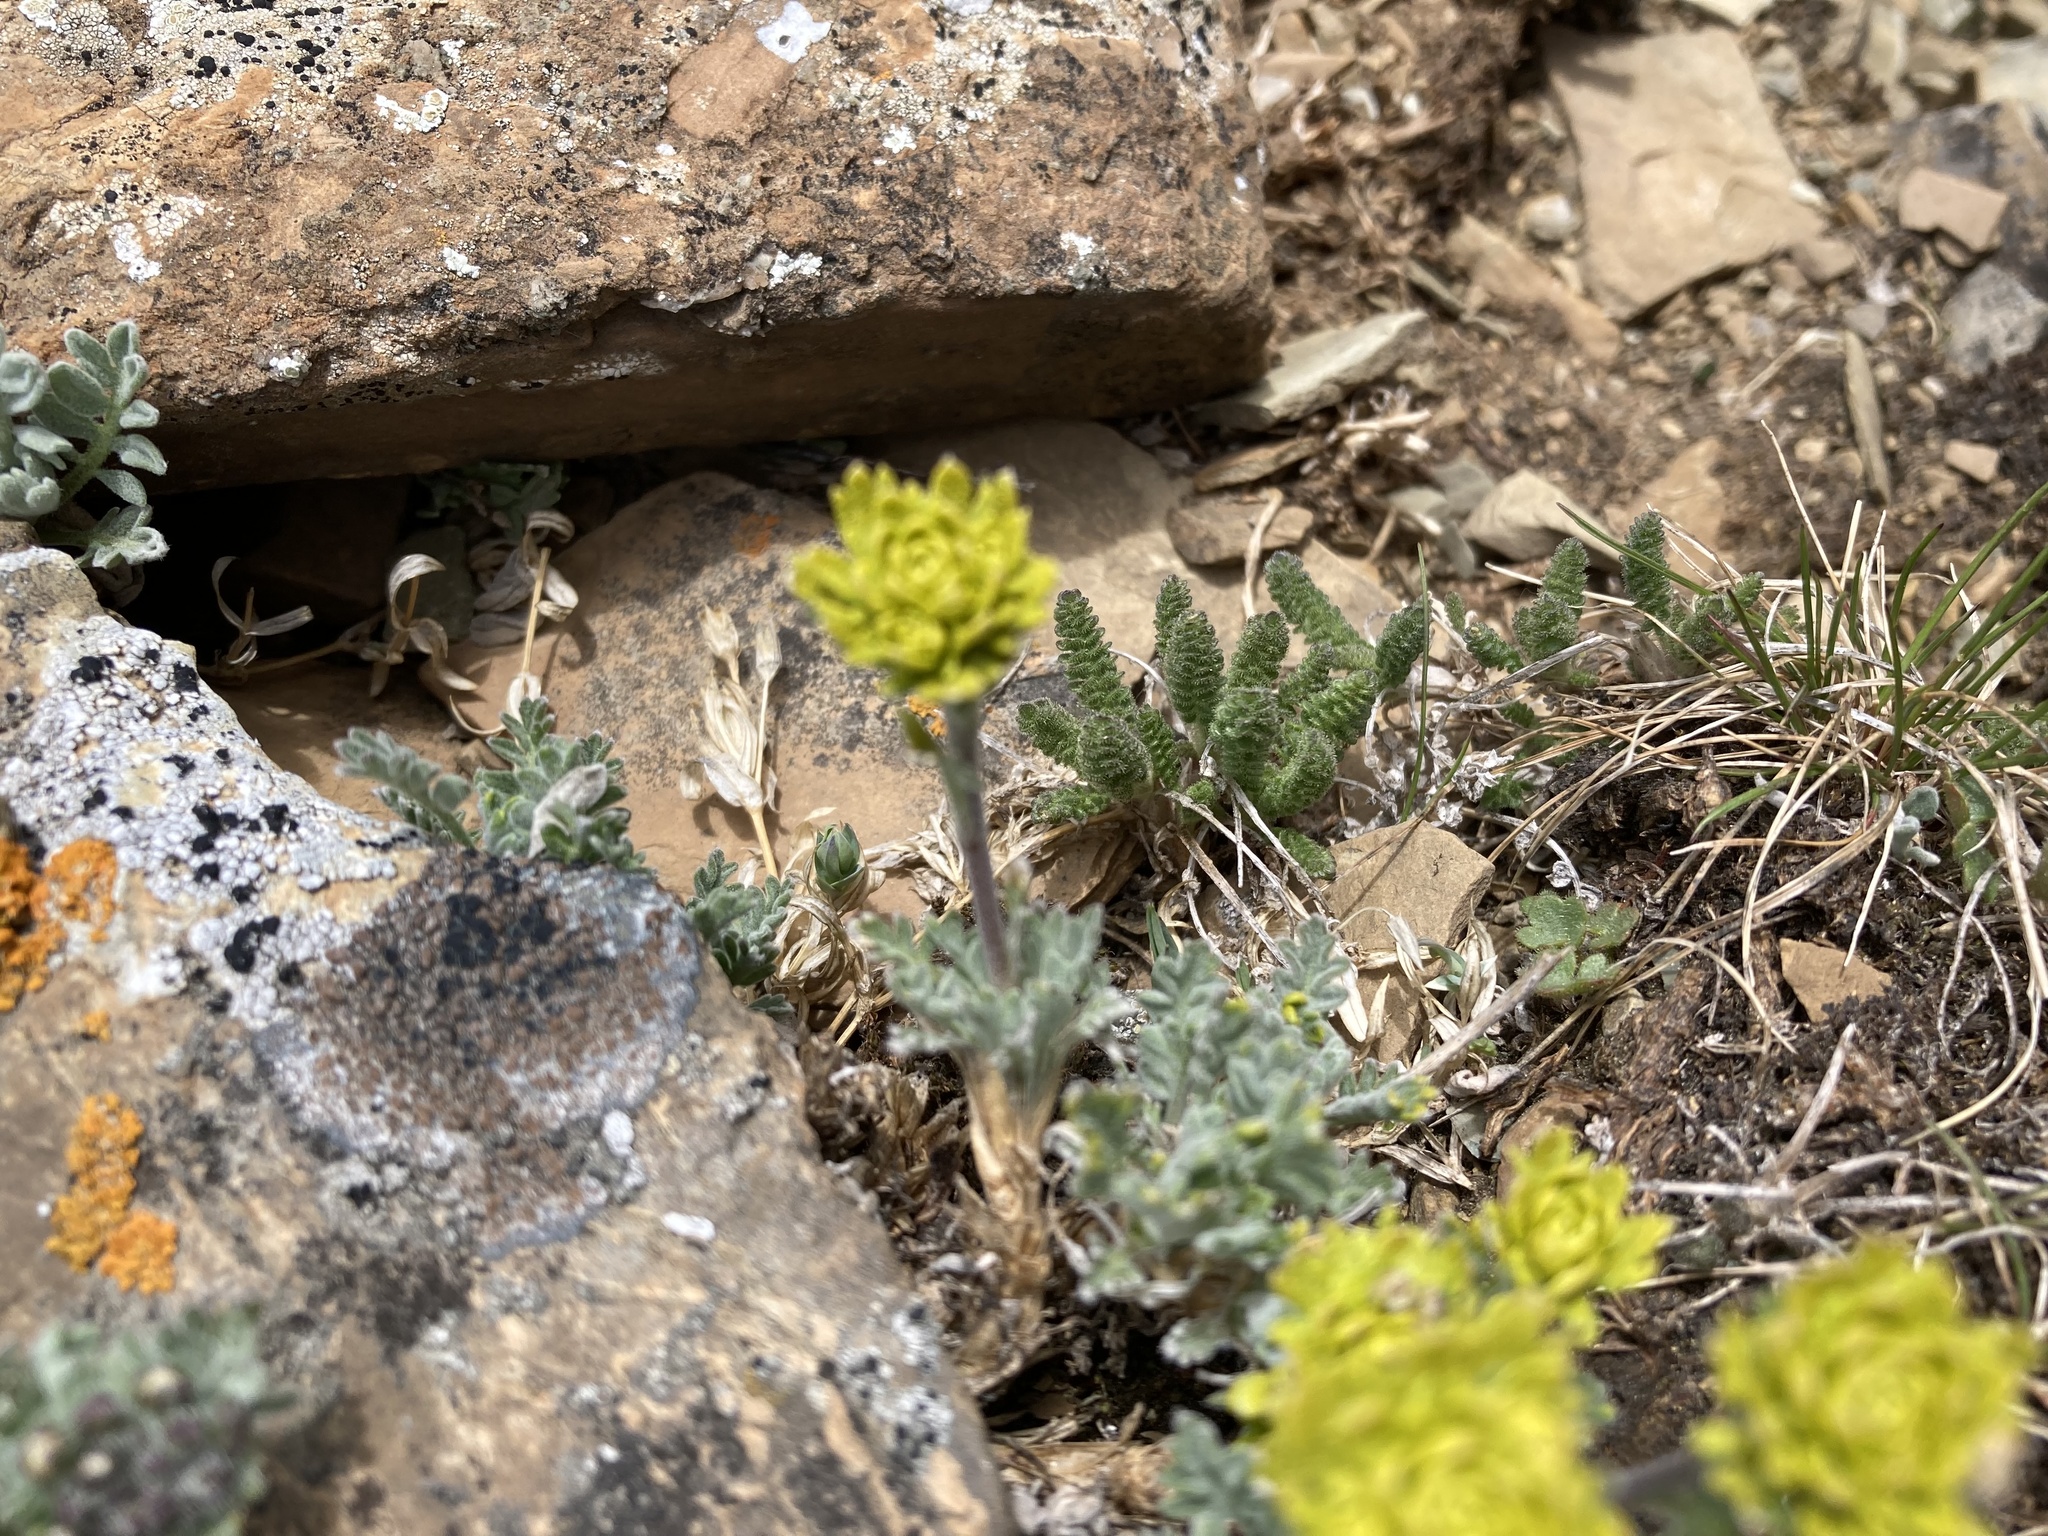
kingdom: Plantae
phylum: Tracheophyta
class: Magnoliopsida
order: Brassicales
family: Brassicaceae
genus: Smelowskia
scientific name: Smelowskia americana
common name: American false candytuft
